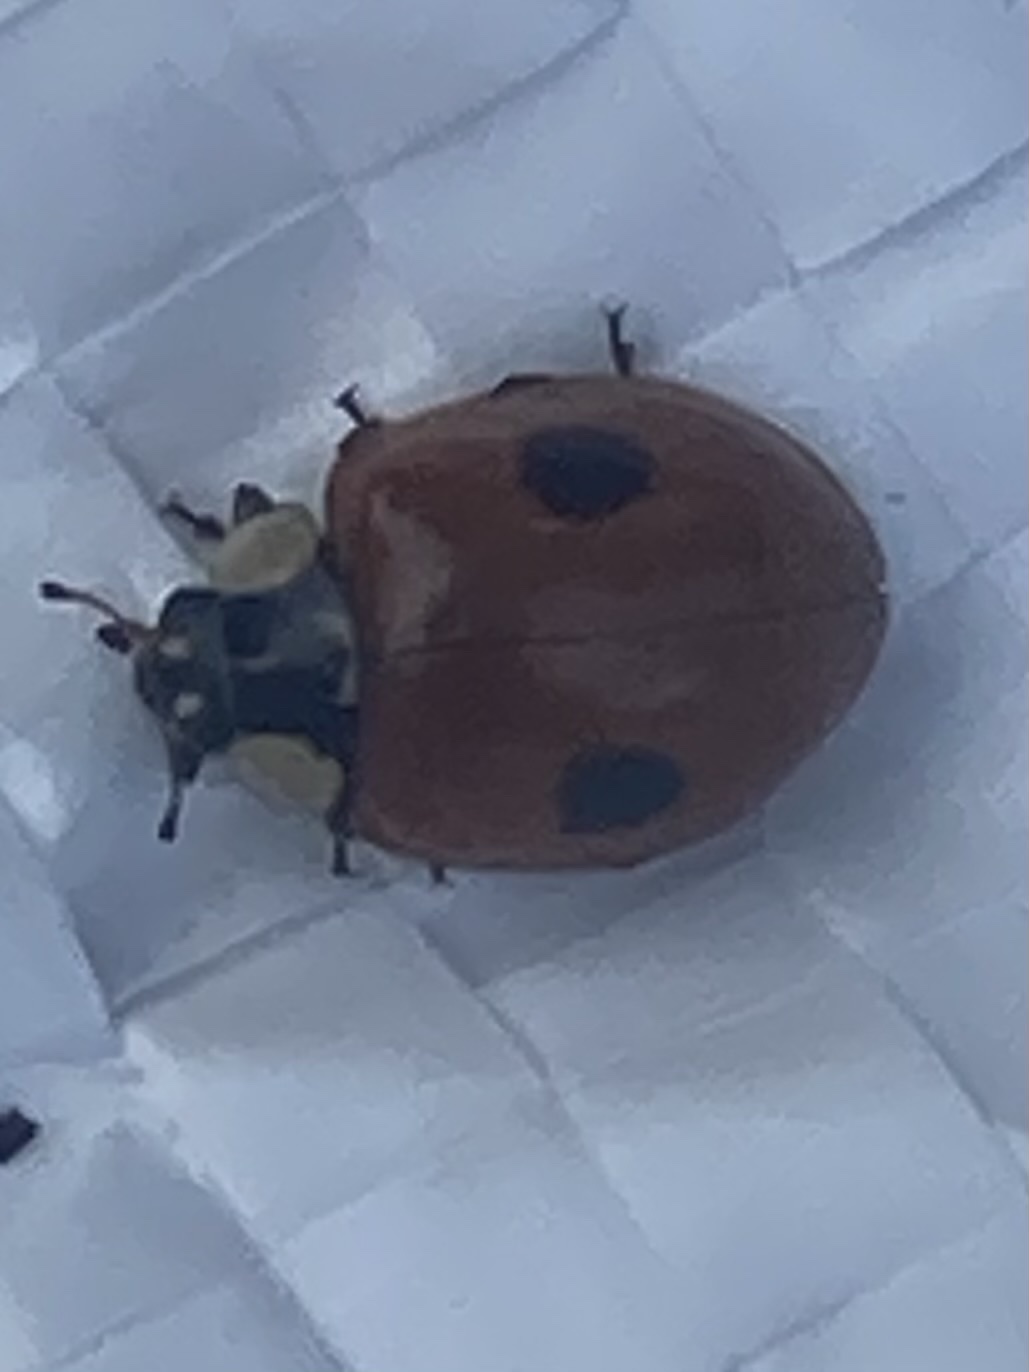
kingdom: Animalia
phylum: Arthropoda
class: Insecta
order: Coleoptera
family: Coccinellidae
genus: Adalia
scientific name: Adalia bipunctata
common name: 2-spot ladybird
